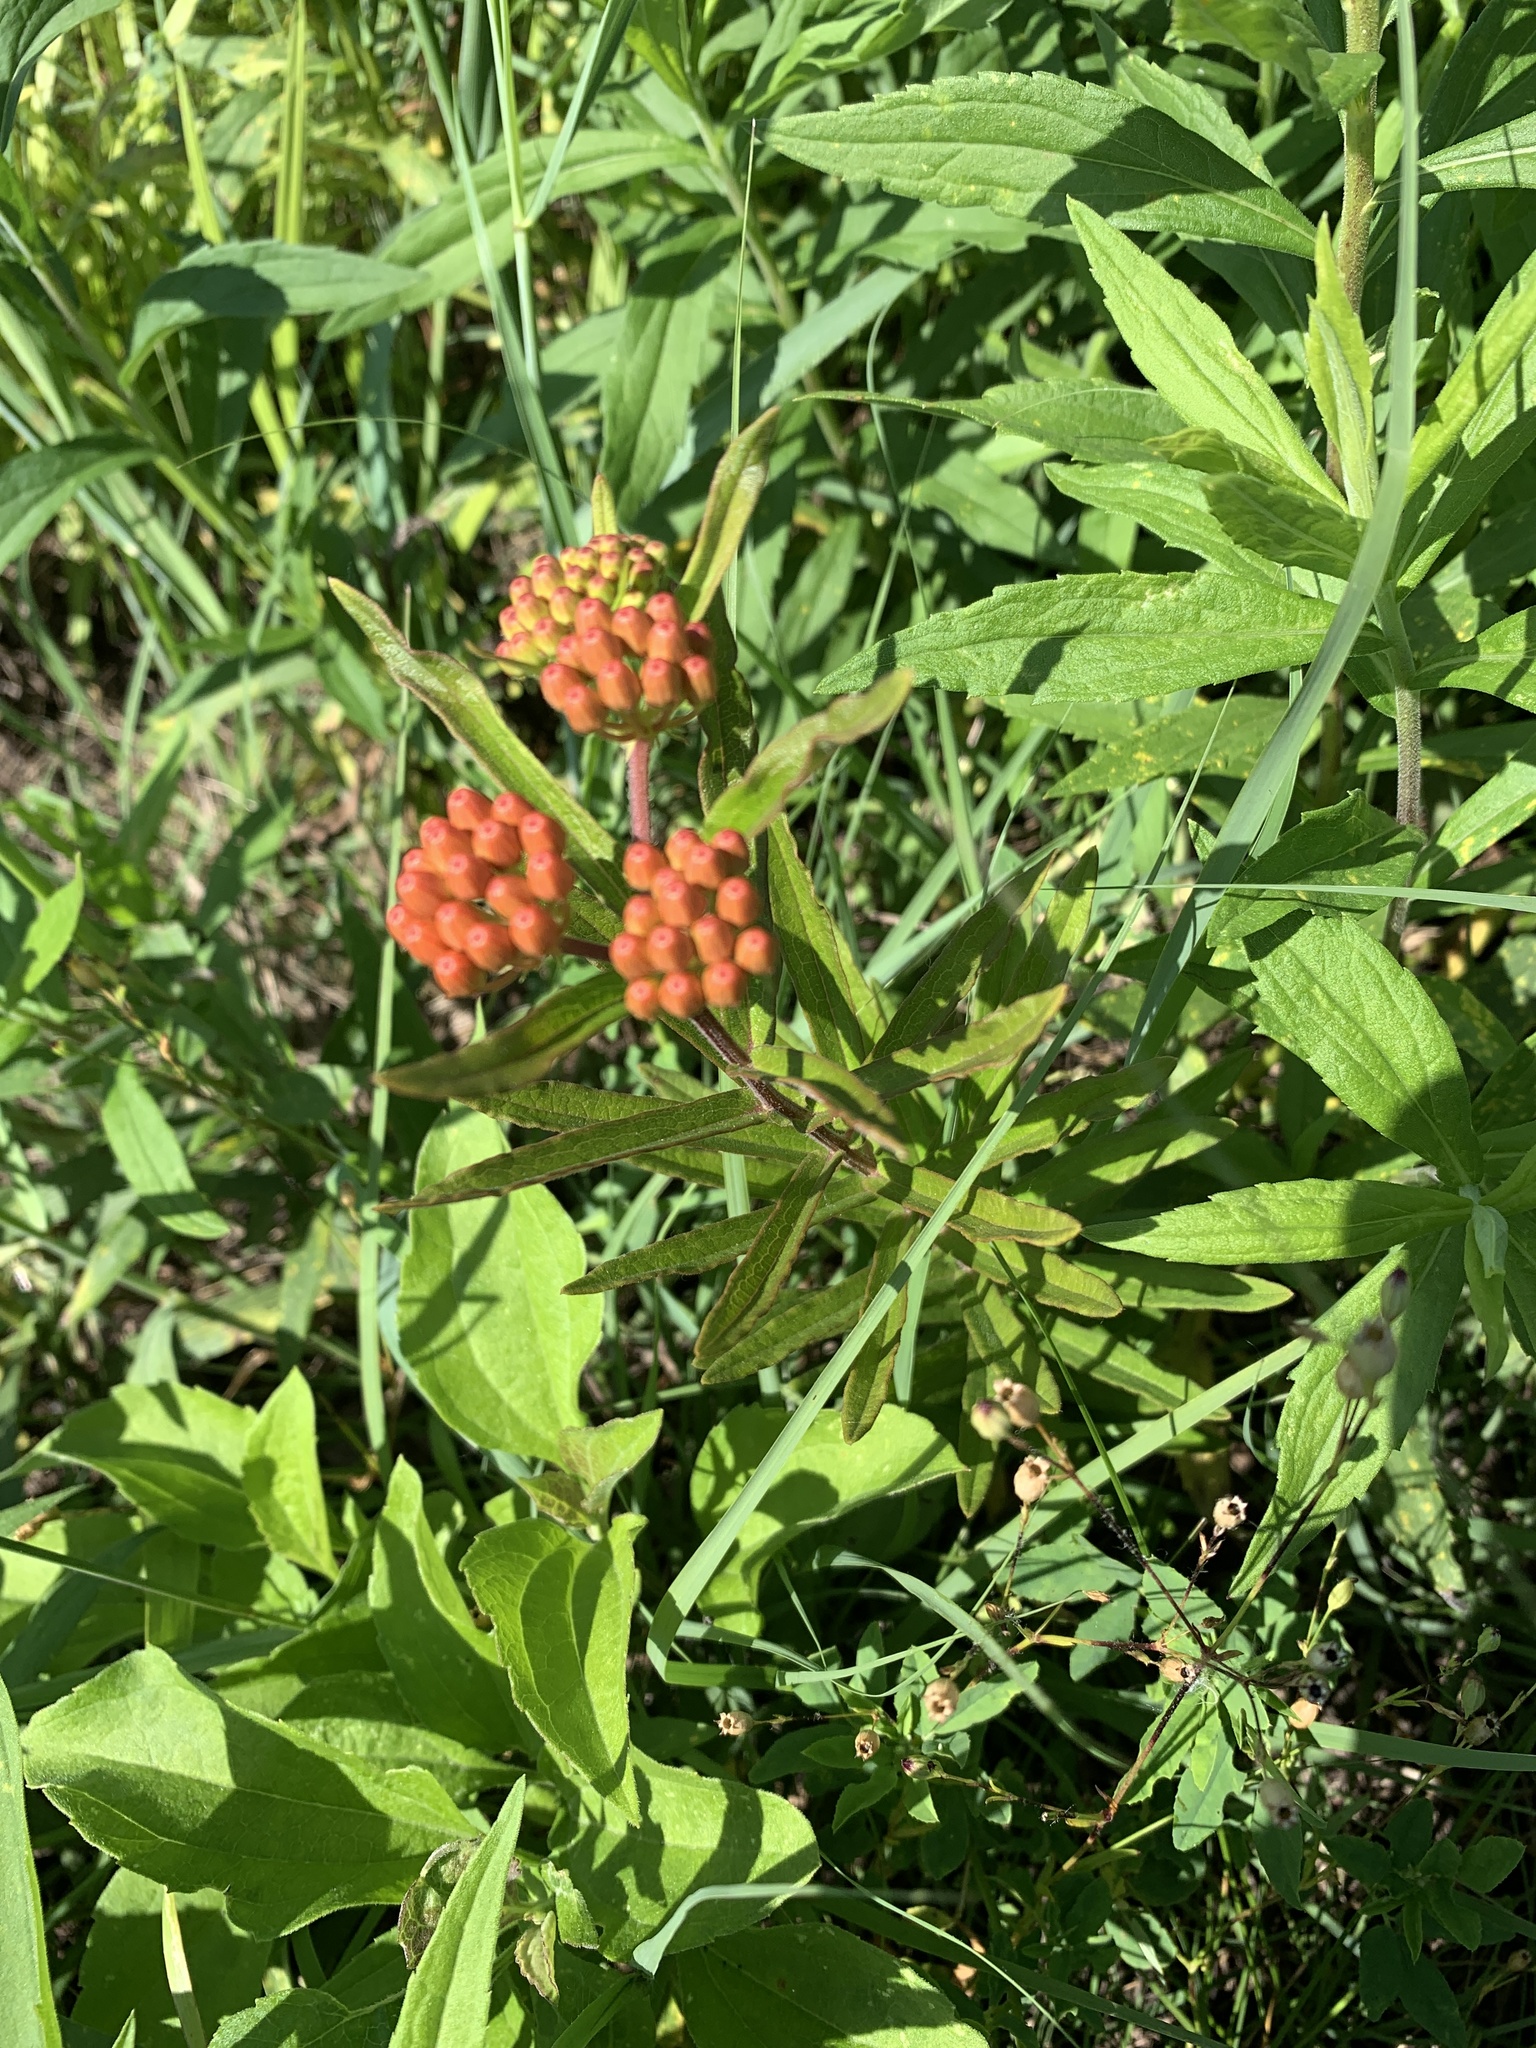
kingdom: Plantae
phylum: Tracheophyta
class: Magnoliopsida
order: Gentianales
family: Apocynaceae
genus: Asclepias
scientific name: Asclepias tuberosa
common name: Butterfly milkweed
